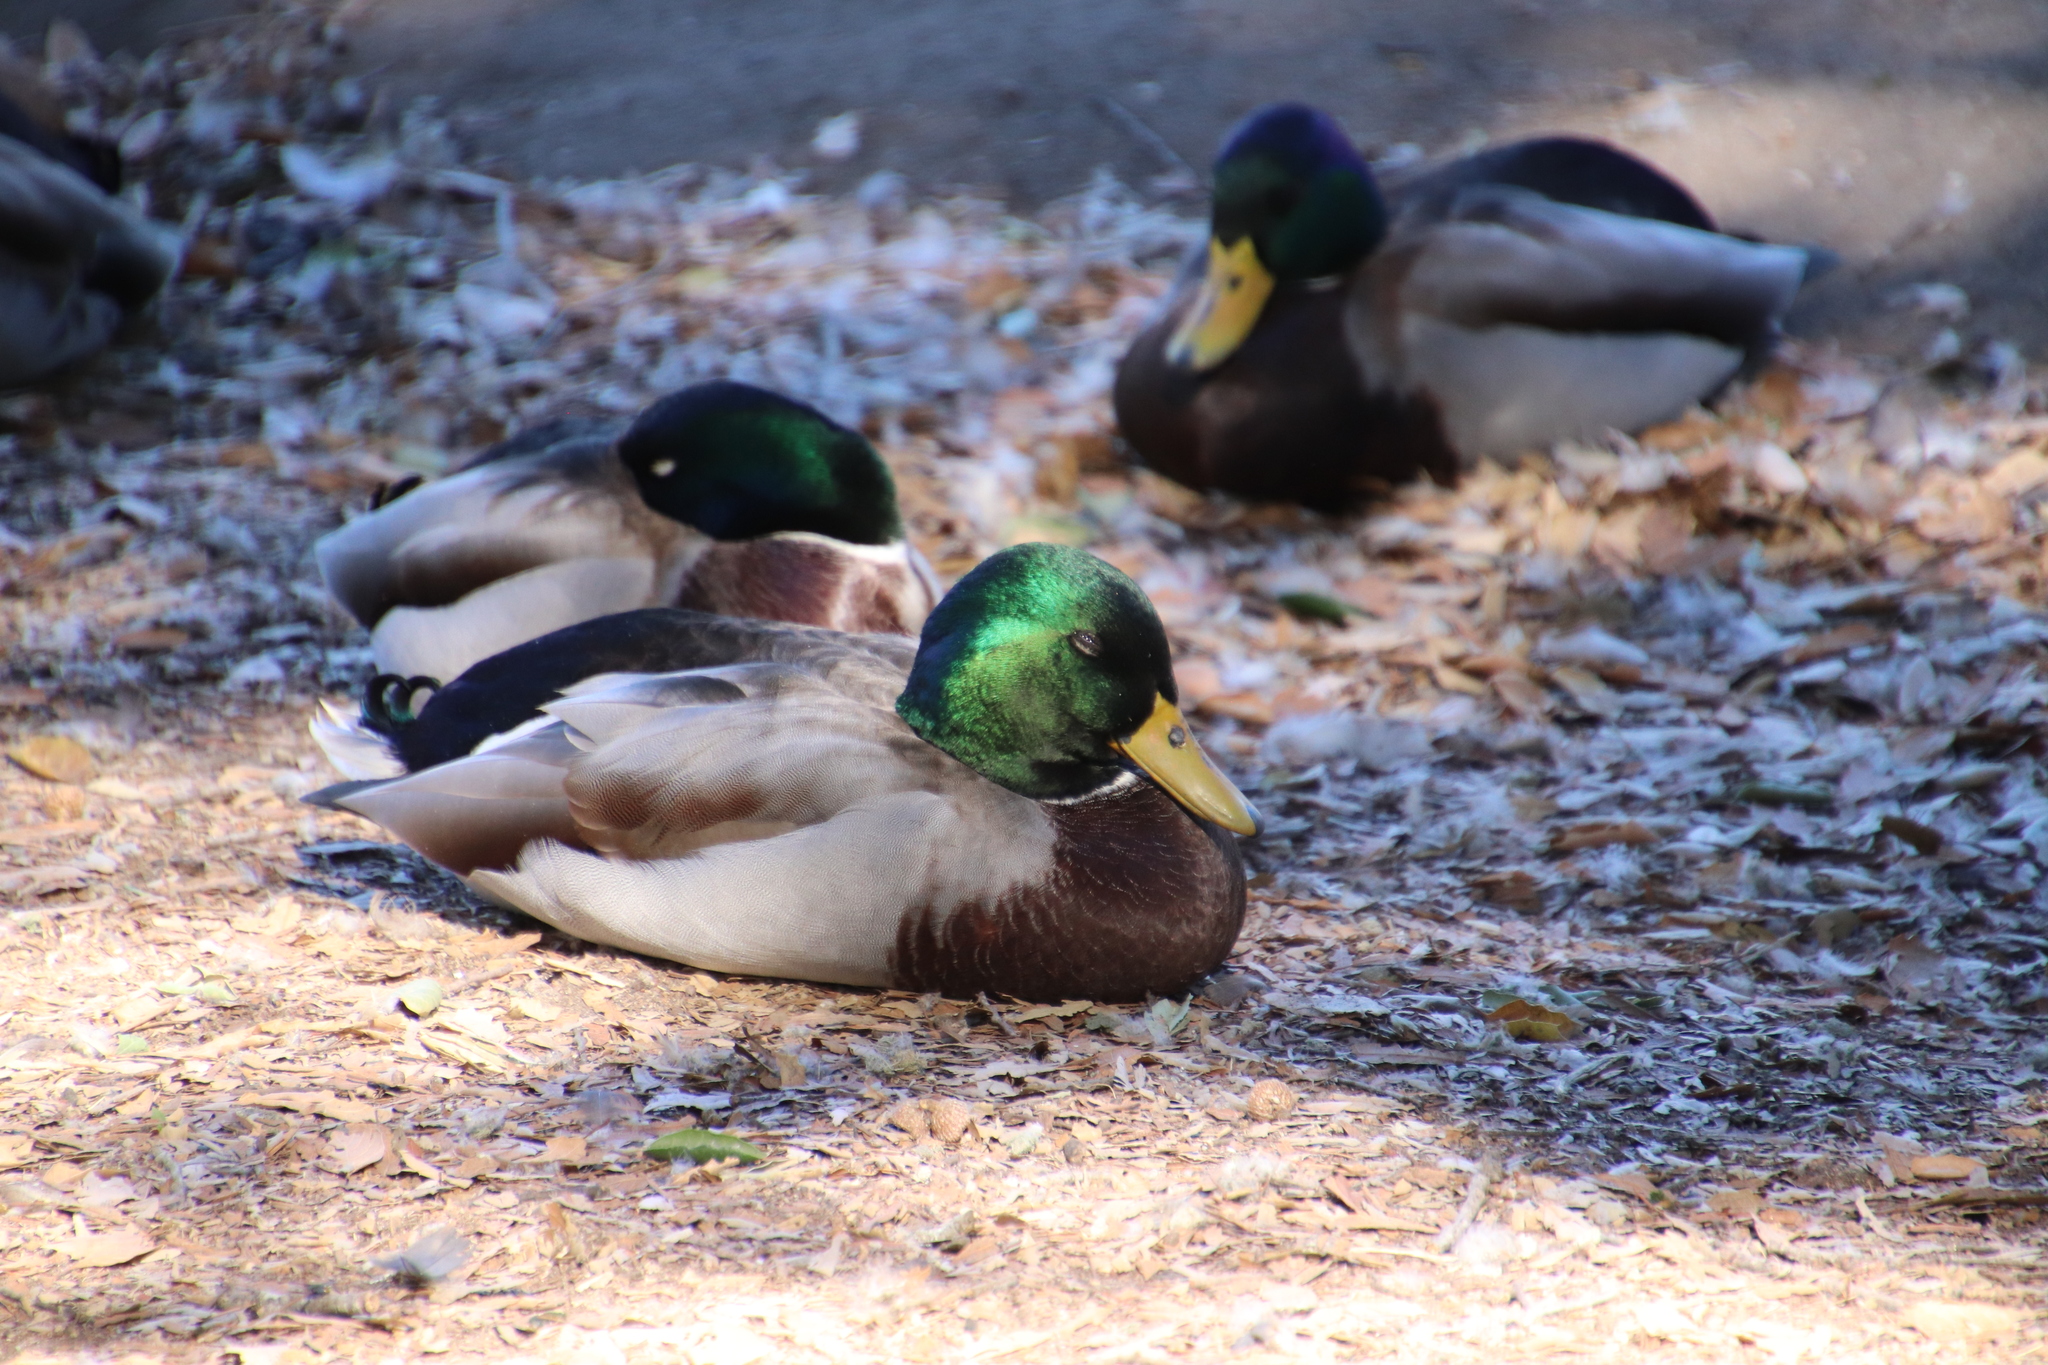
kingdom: Animalia
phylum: Chordata
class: Aves
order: Anseriformes
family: Anatidae
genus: Anas
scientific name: Anas platyrhynchos
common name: Mallard
